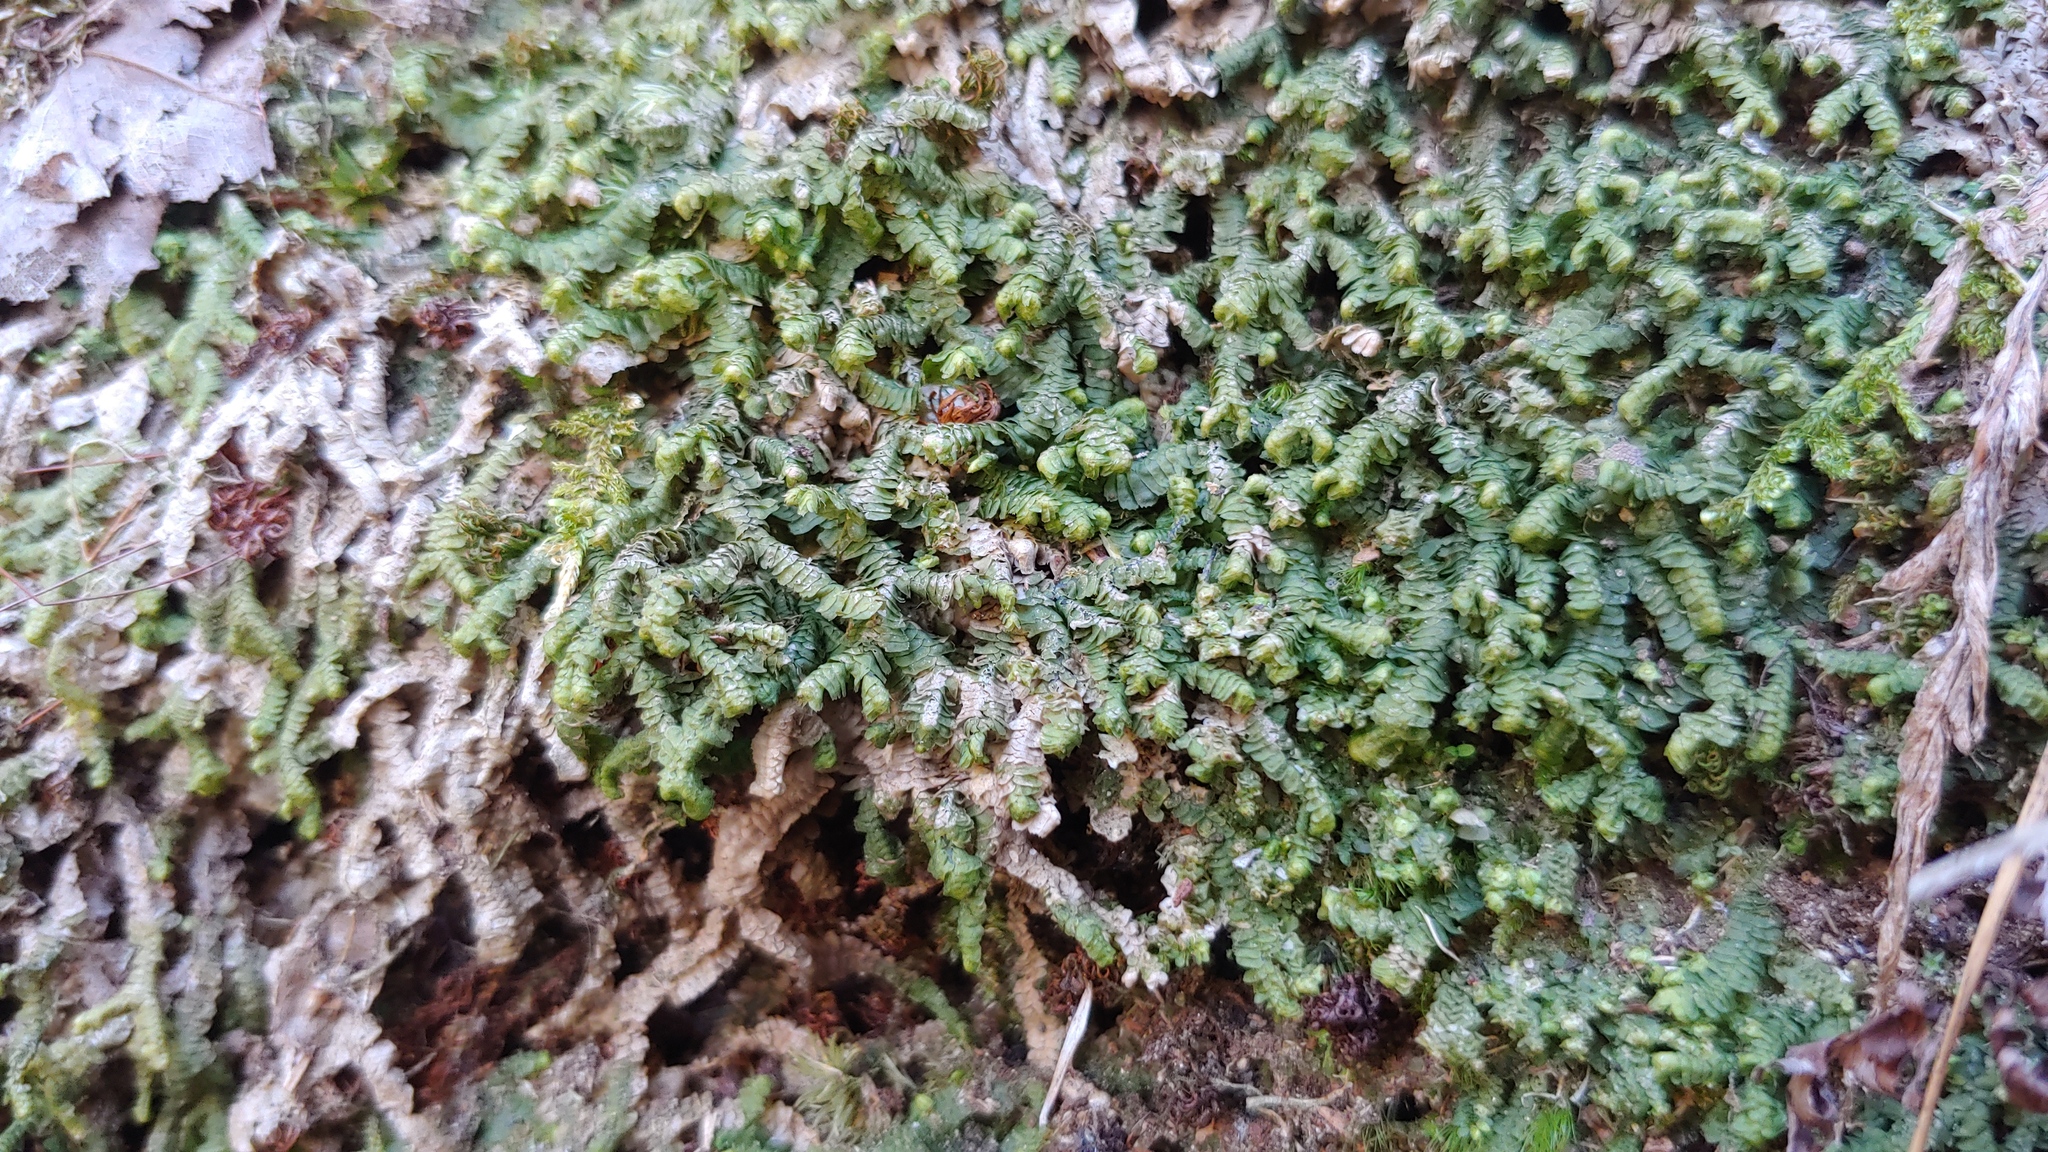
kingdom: Plantae
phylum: Marchantiophyta
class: Jungermanniopsida
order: Jungermanniales
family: Lepidoziaceae
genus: Bazzania
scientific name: Bazzania trilobata
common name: Three-lobed whipwort
